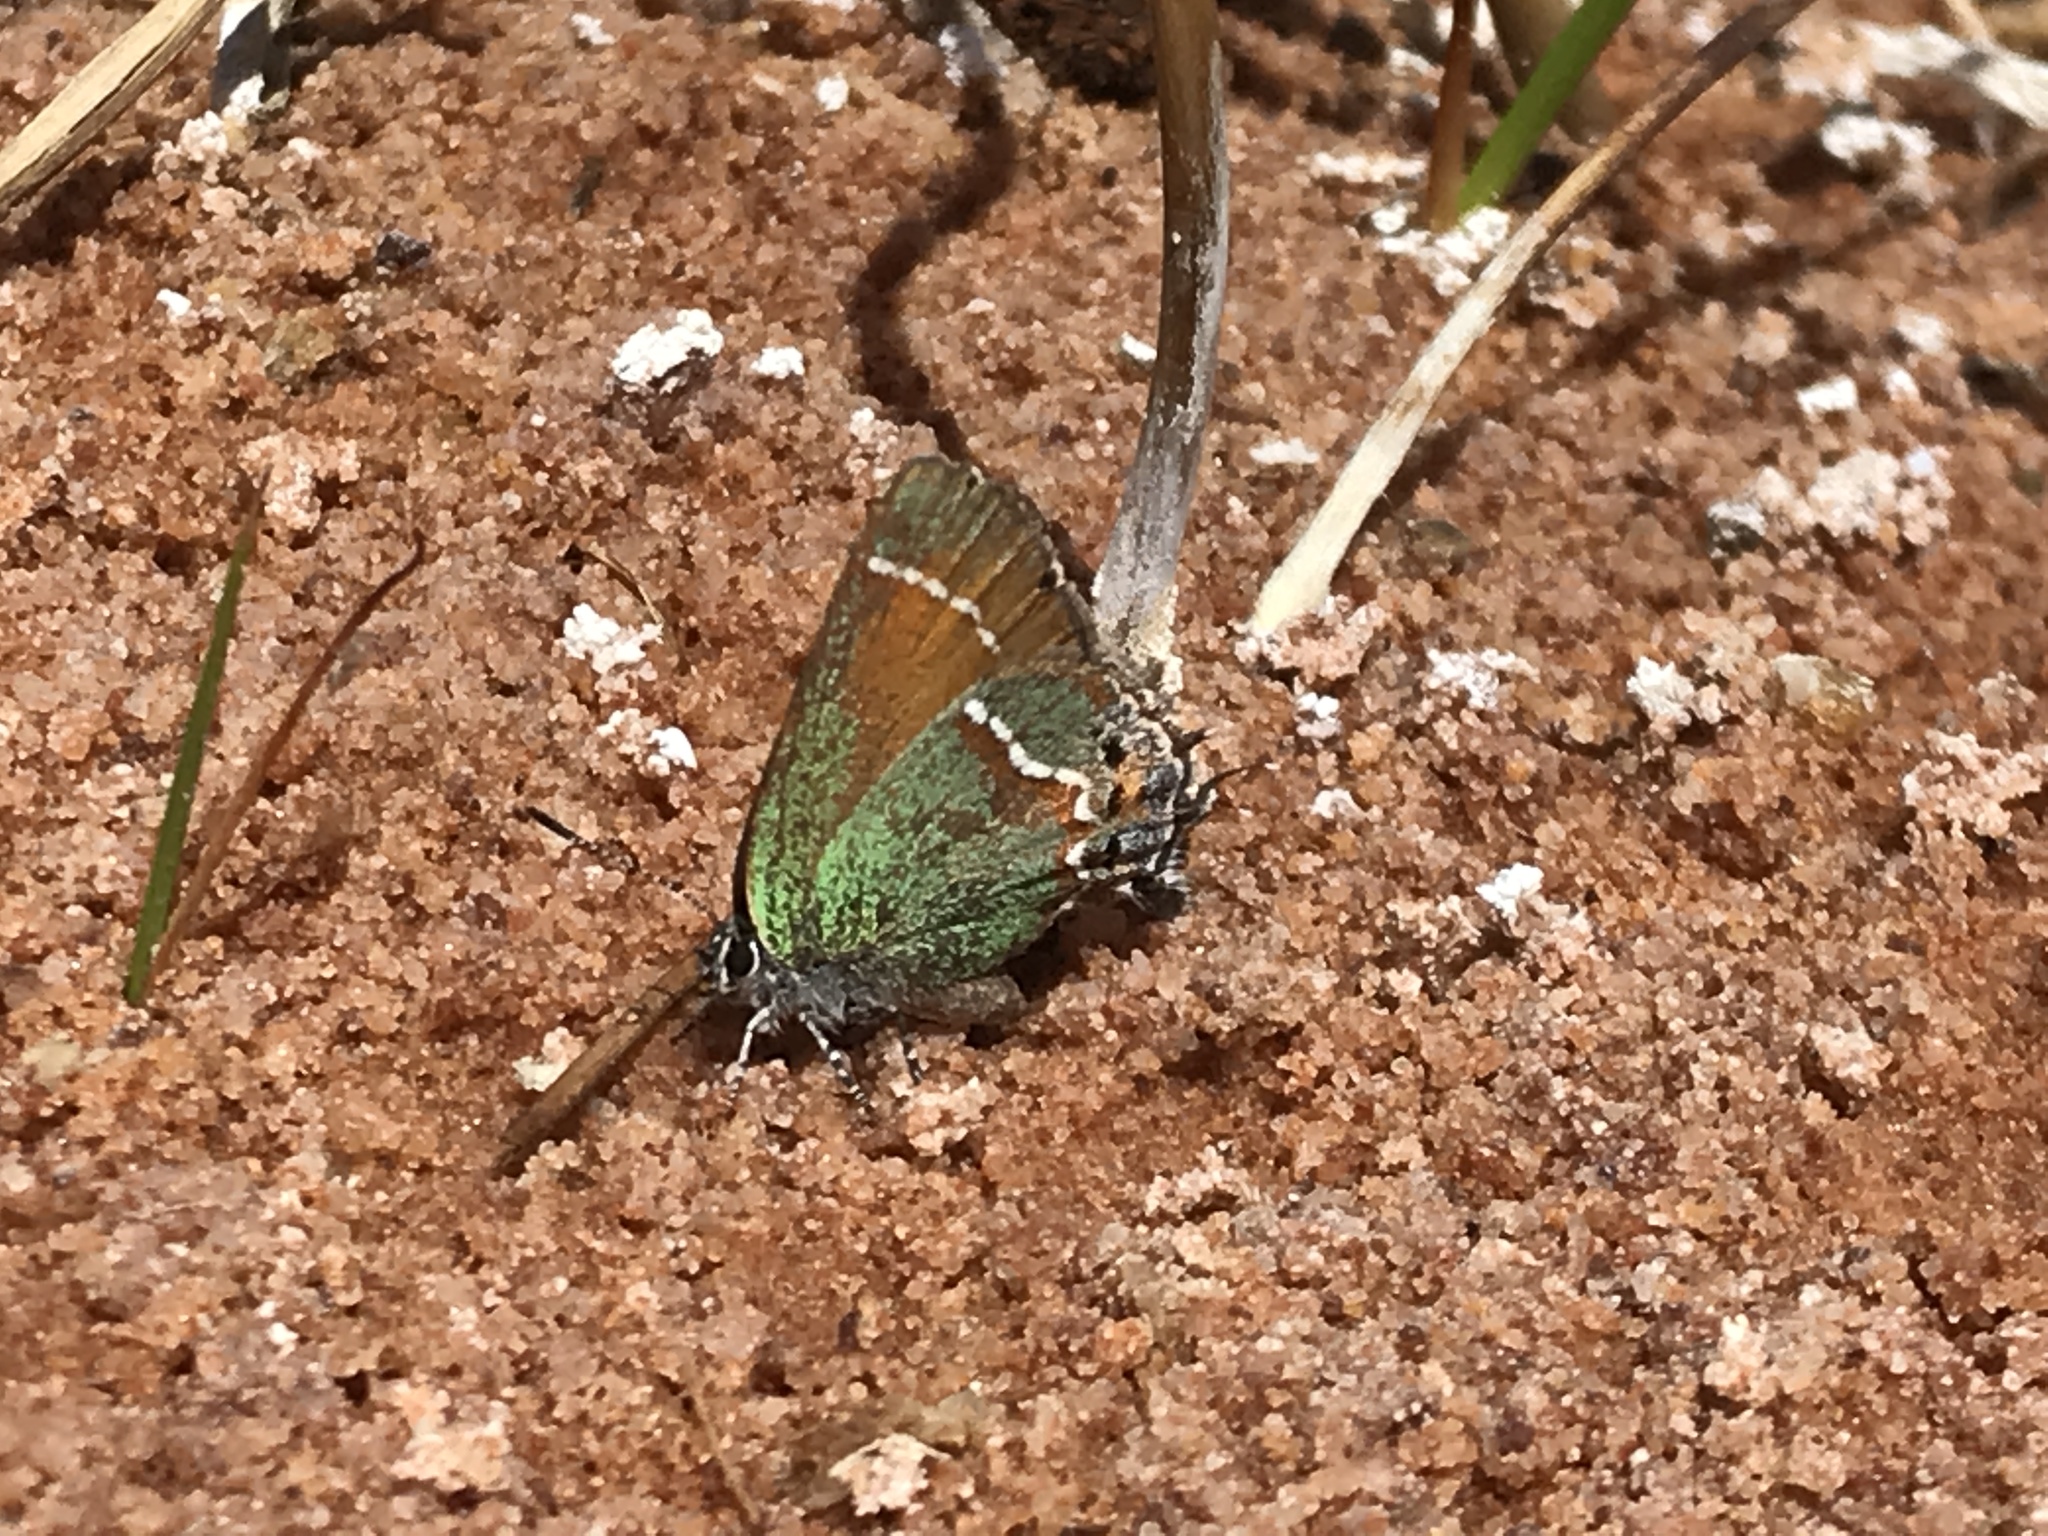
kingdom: Animalia
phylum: Arthropoda
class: Insecta
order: Lepidoptera
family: Lycaenidae
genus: Mitoura
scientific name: Mitoura siva
